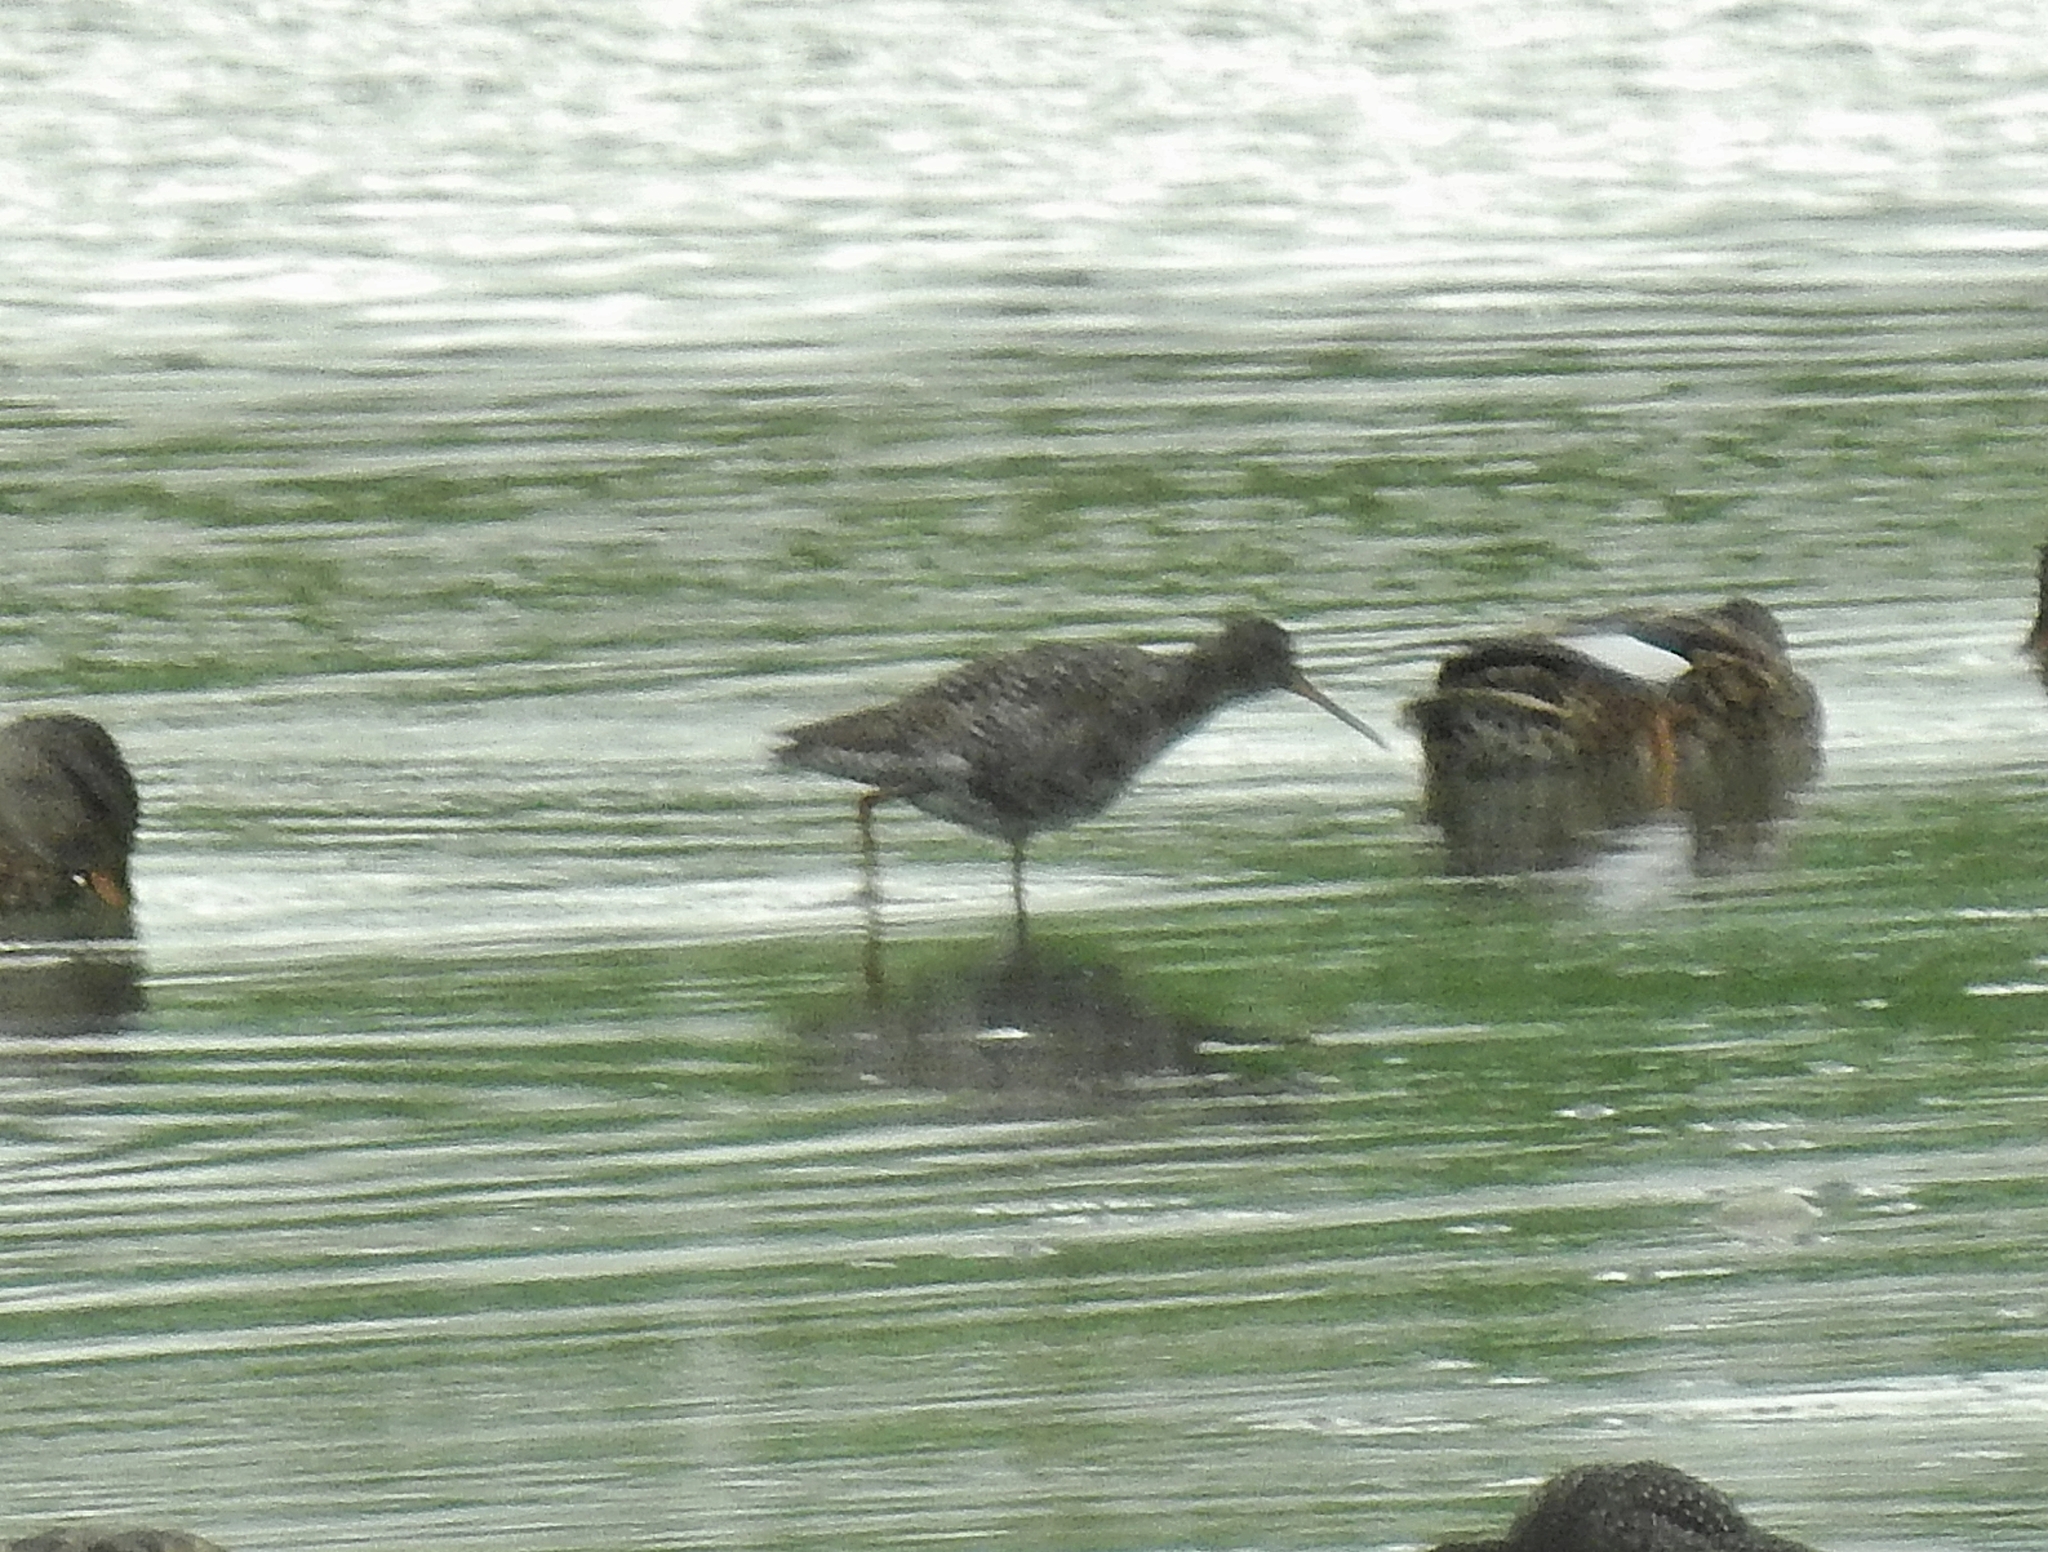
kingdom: Animalia
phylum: Chordata
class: Aves
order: Charadriiformes
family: Scolopacidae
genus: Tringa
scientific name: Tringa erythropus
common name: Spotted redshank
